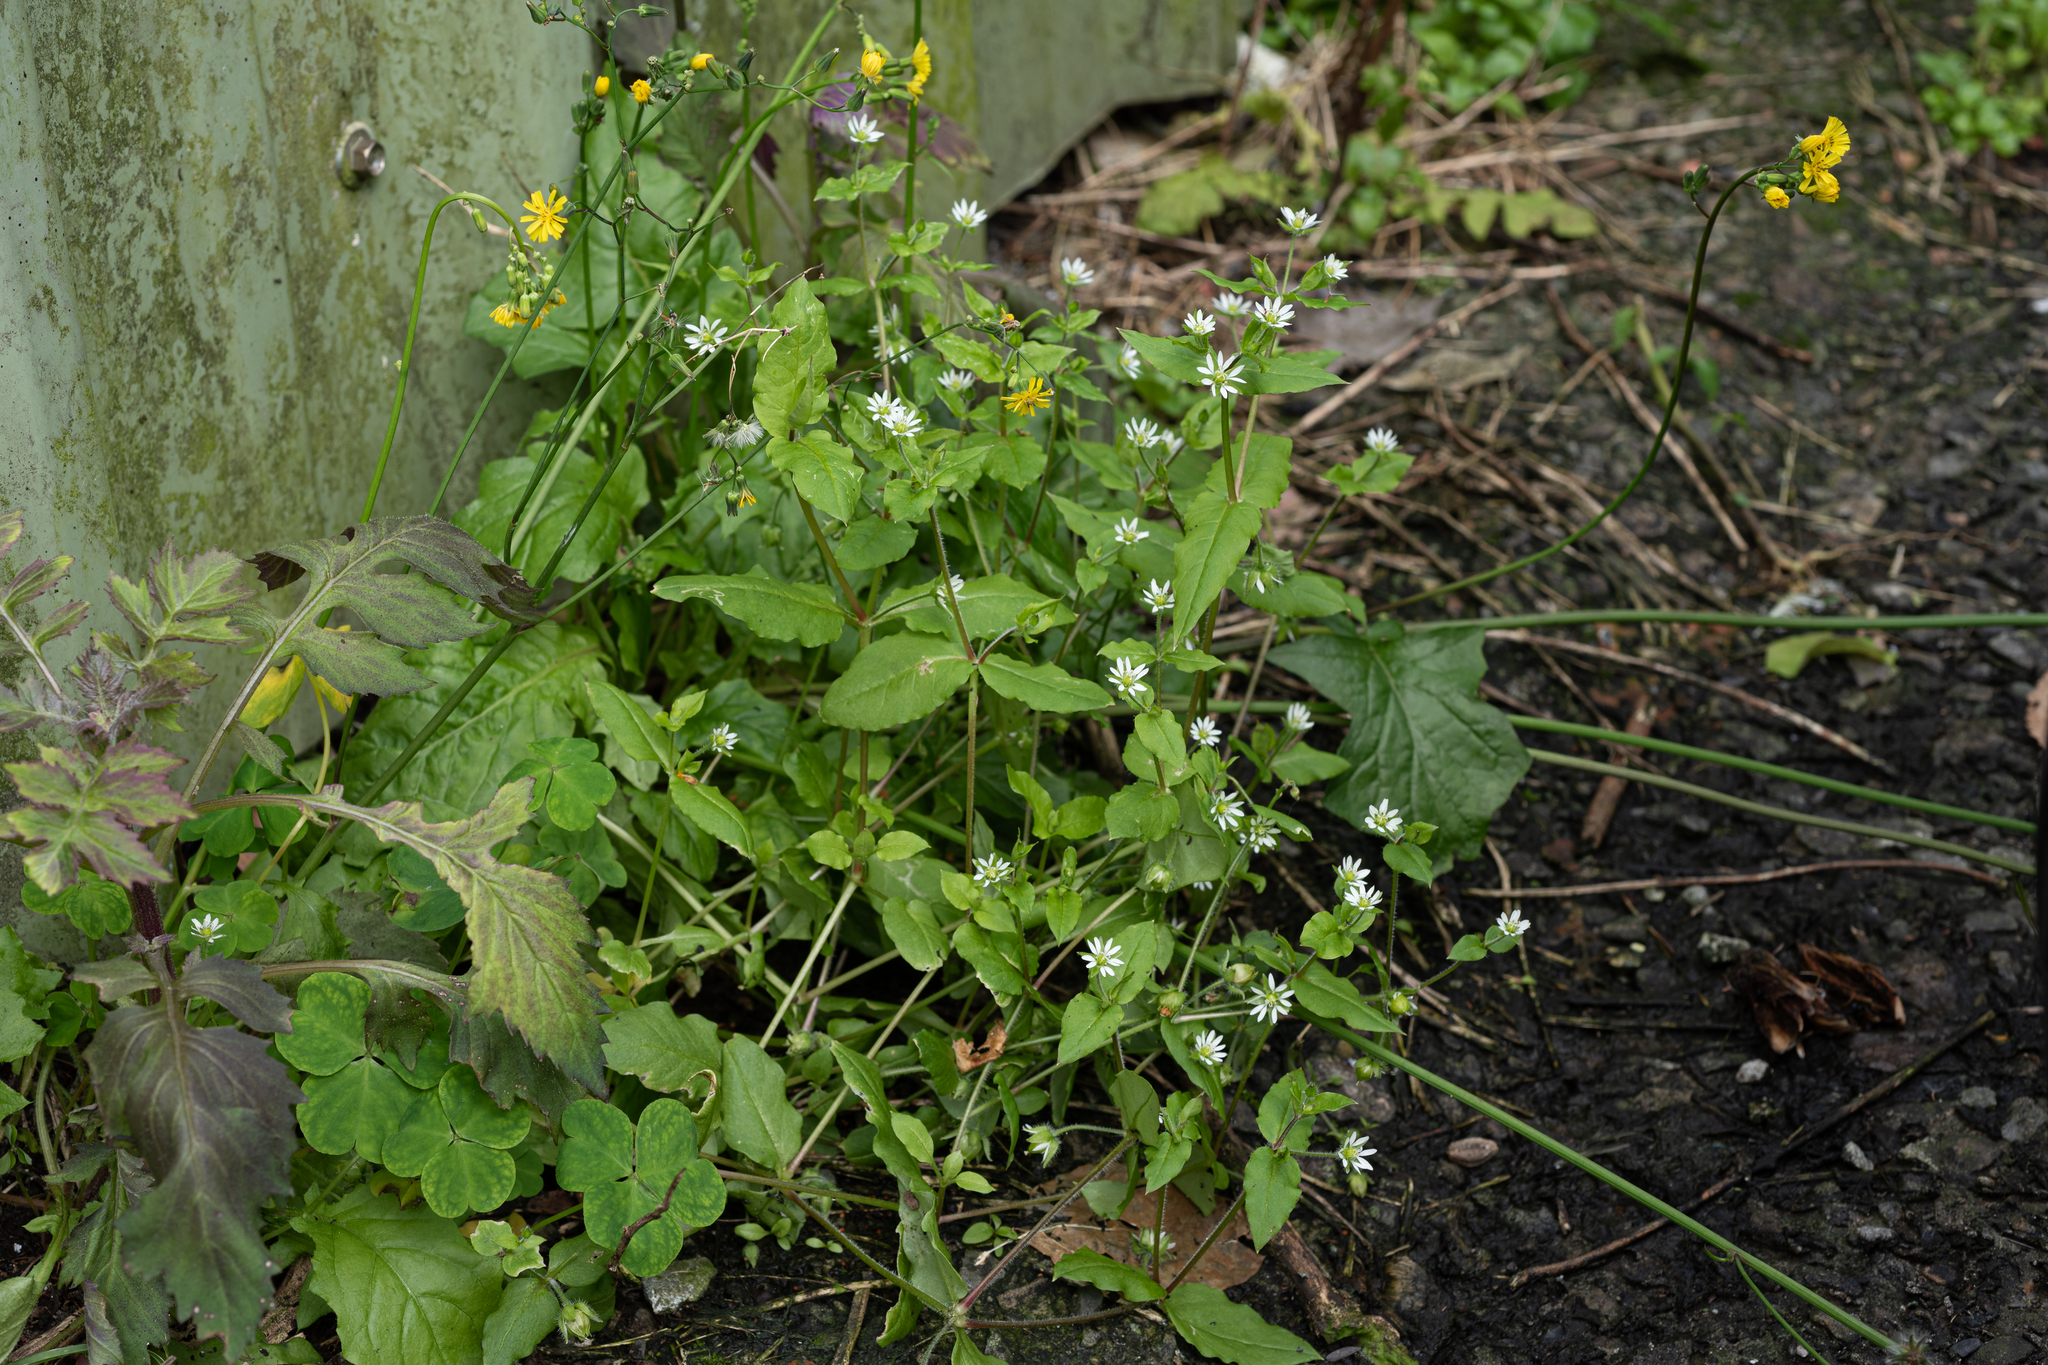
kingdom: Plantae
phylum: Tracheophyta
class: Magnoliopsida
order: Caryophyllales
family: Caryophyllaceae
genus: Stellaria
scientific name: Stellaria aquatica
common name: Water chickweed
